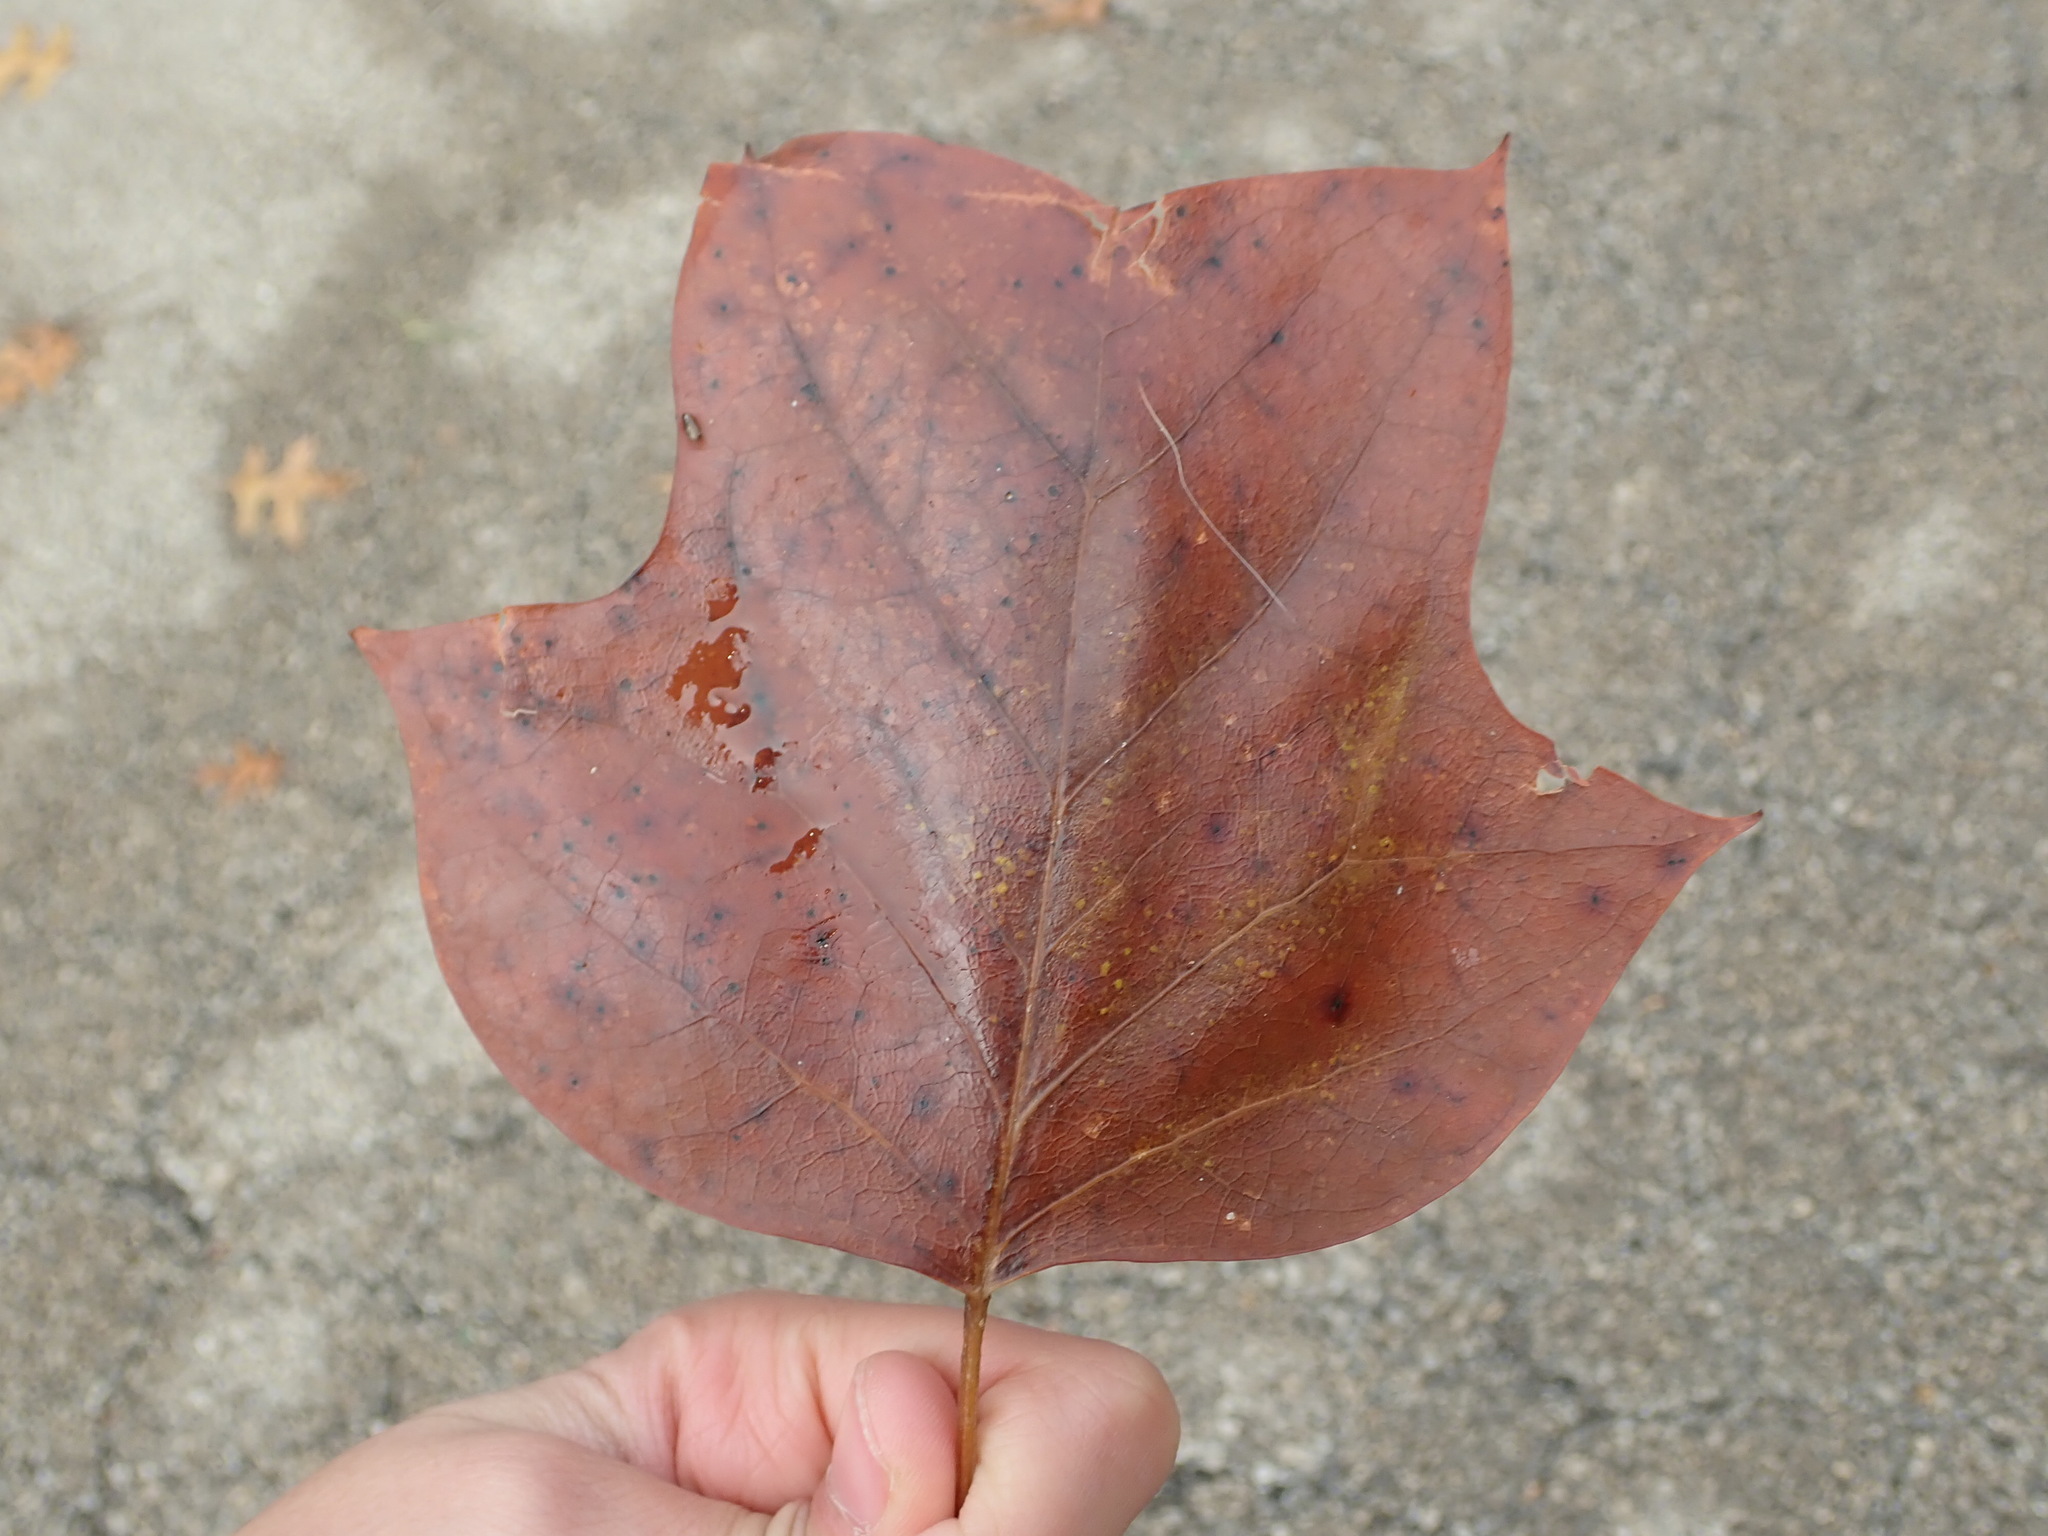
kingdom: Plantae
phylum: Tracheophyta
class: Magnoliopsida
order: Magnoliales
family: Magnoliaceae
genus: Liriodendron
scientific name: Liriodendron tulipifera
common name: Tulip tree
